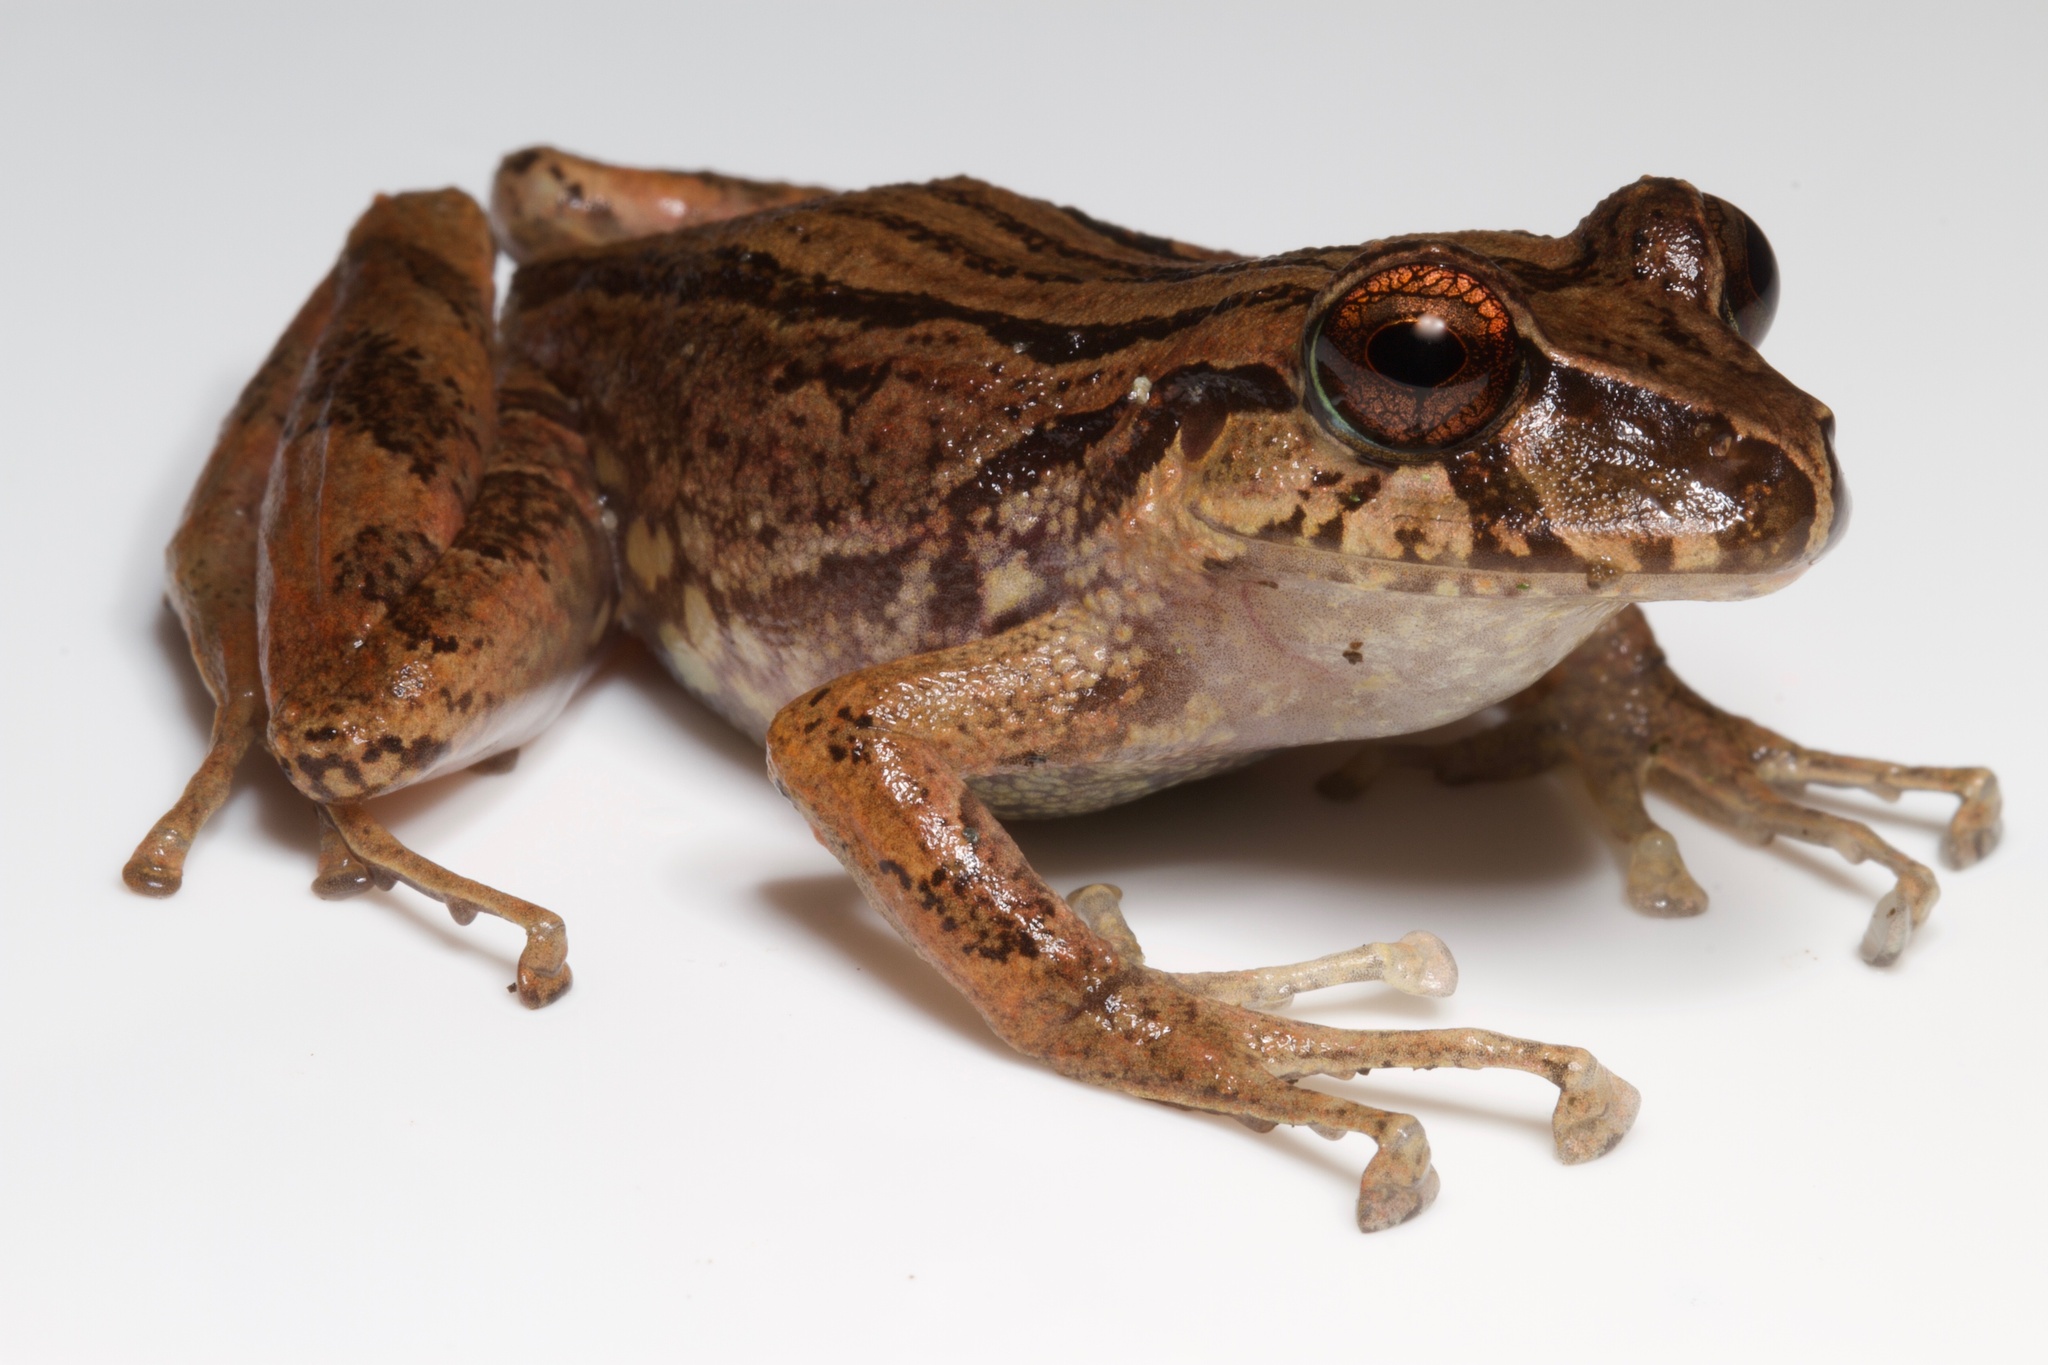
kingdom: Animalia
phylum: Chordata
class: Amphibia
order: Anura
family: Craugastoridae
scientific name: Craugastoridae
